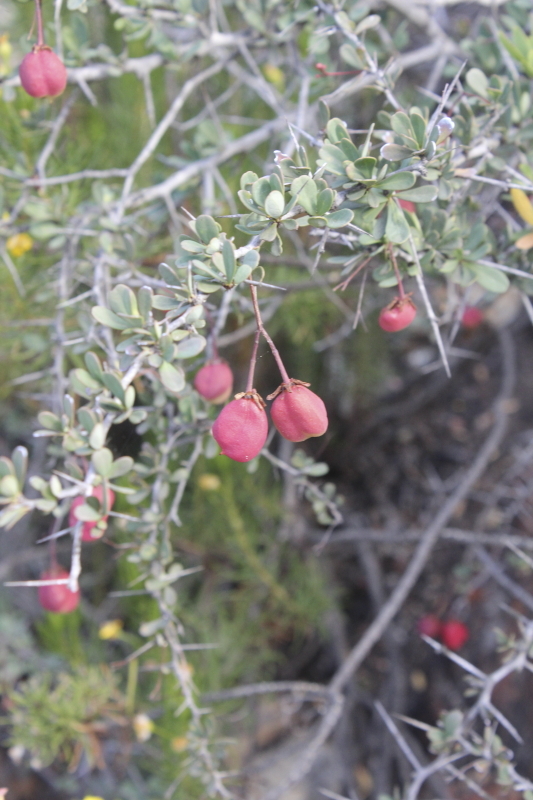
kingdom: Plantae
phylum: Tracheophyta
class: Magnoliopsida
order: Celastrales
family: Celastraceae
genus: Putterlickia
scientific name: Putterlickia pyracantha
